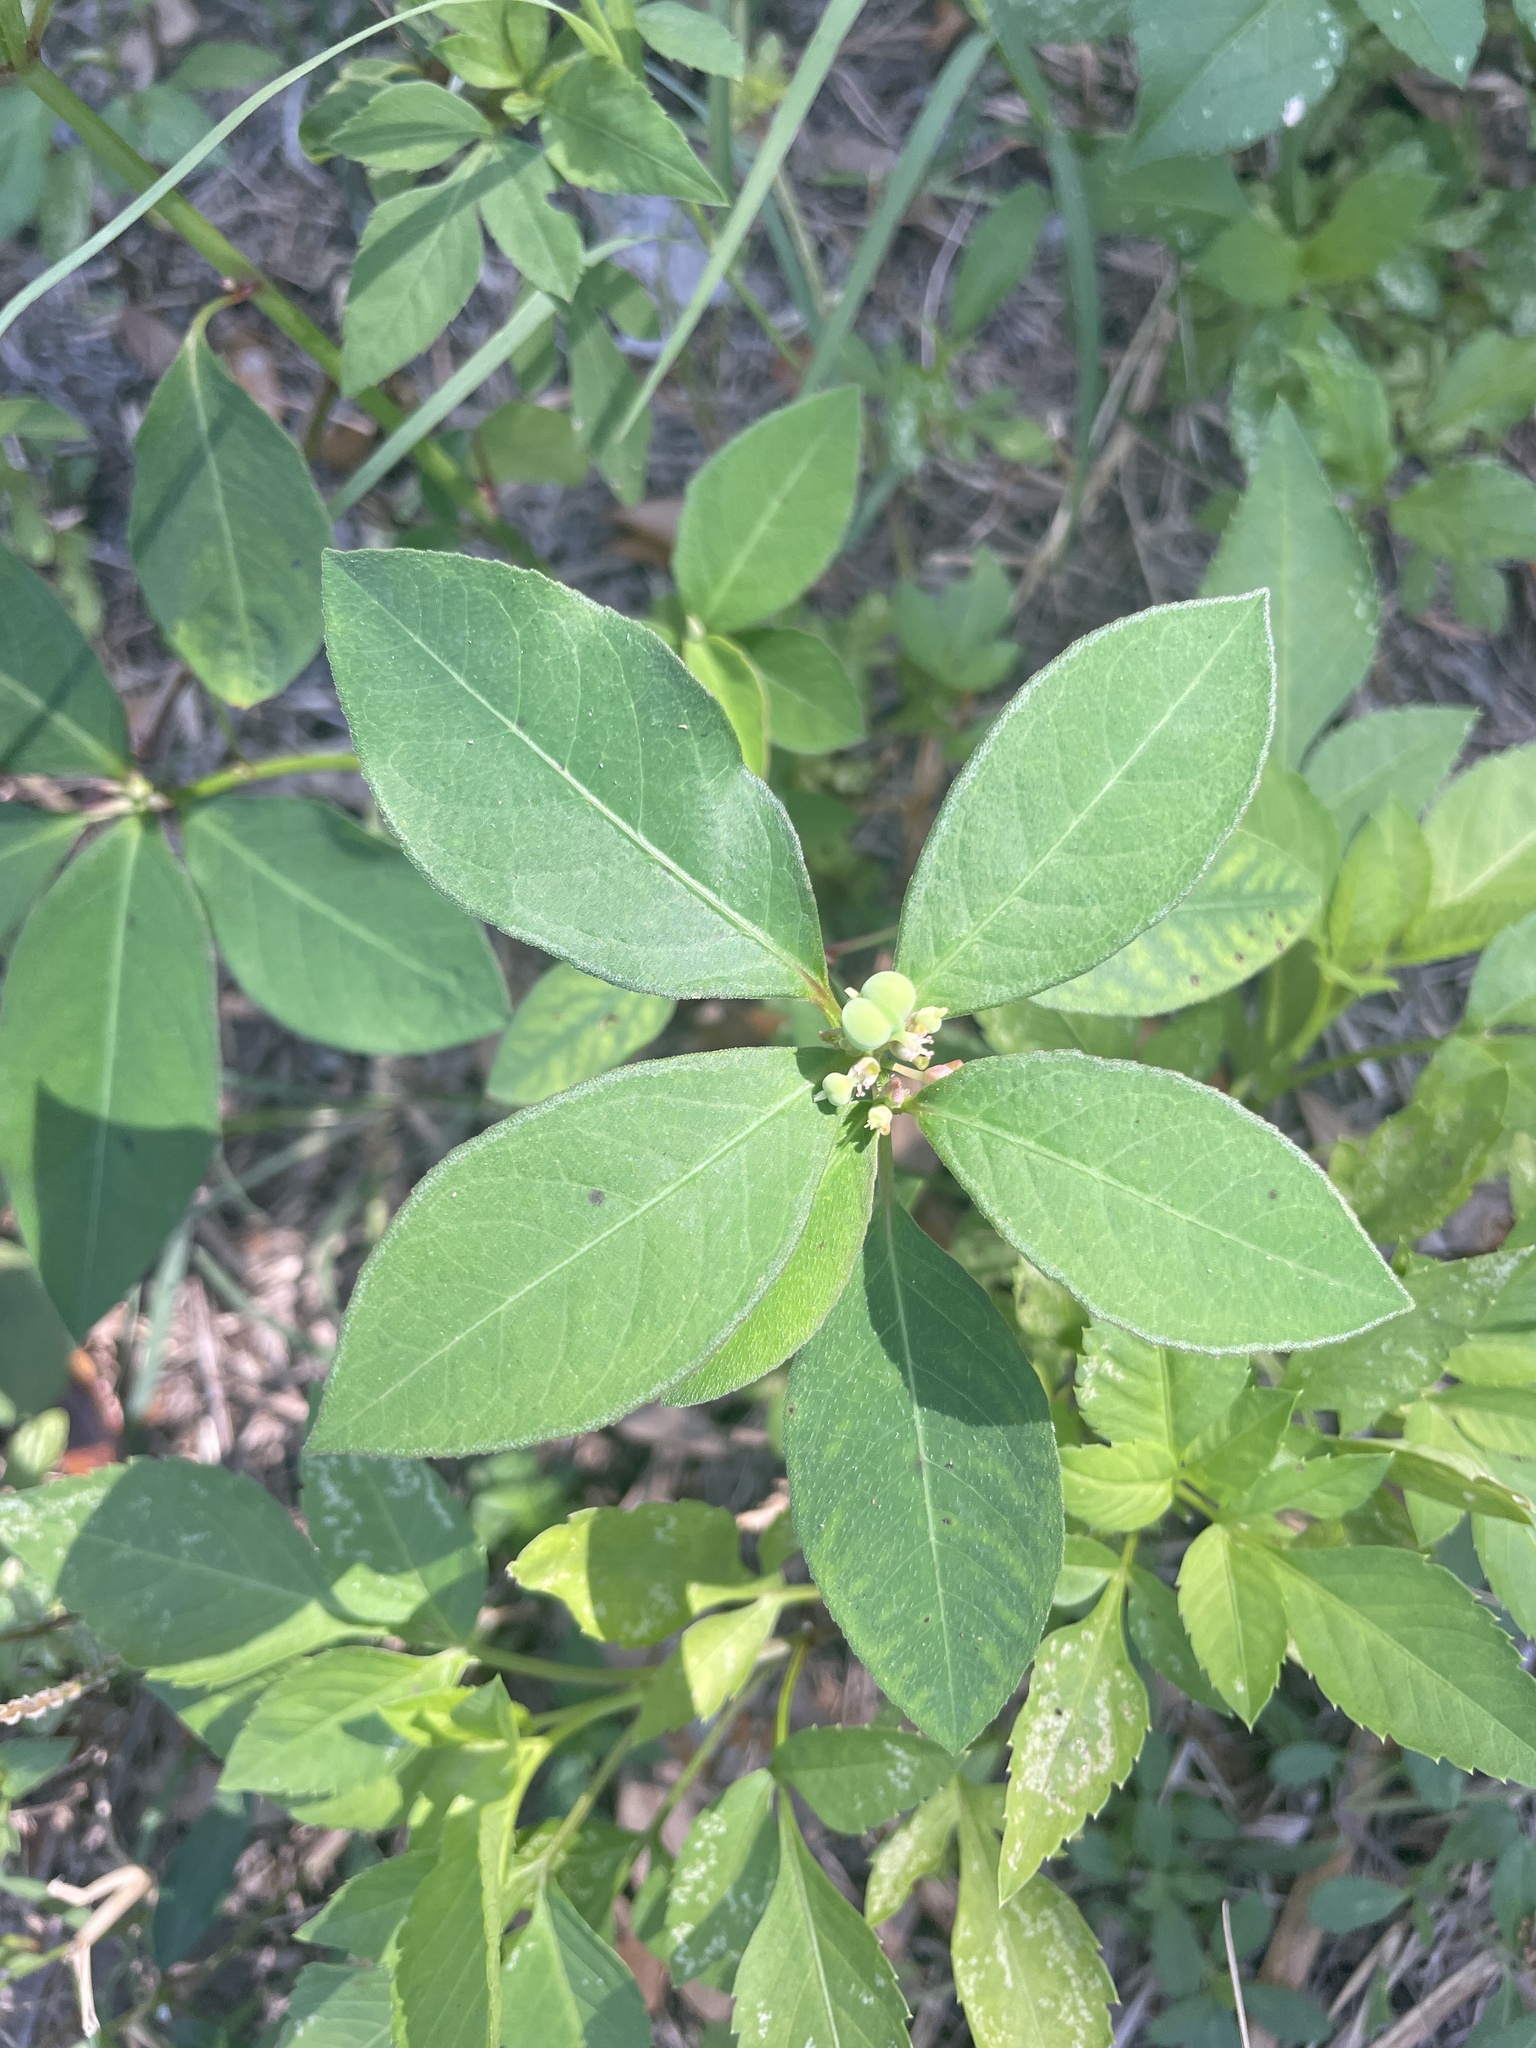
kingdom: Plantae
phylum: Tracheophyta
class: Magnoliopsida
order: Malpighiales
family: Euphorbiaceae
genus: Euphorbia
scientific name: Euphorbia heterophylla
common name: Mexican fireplant
